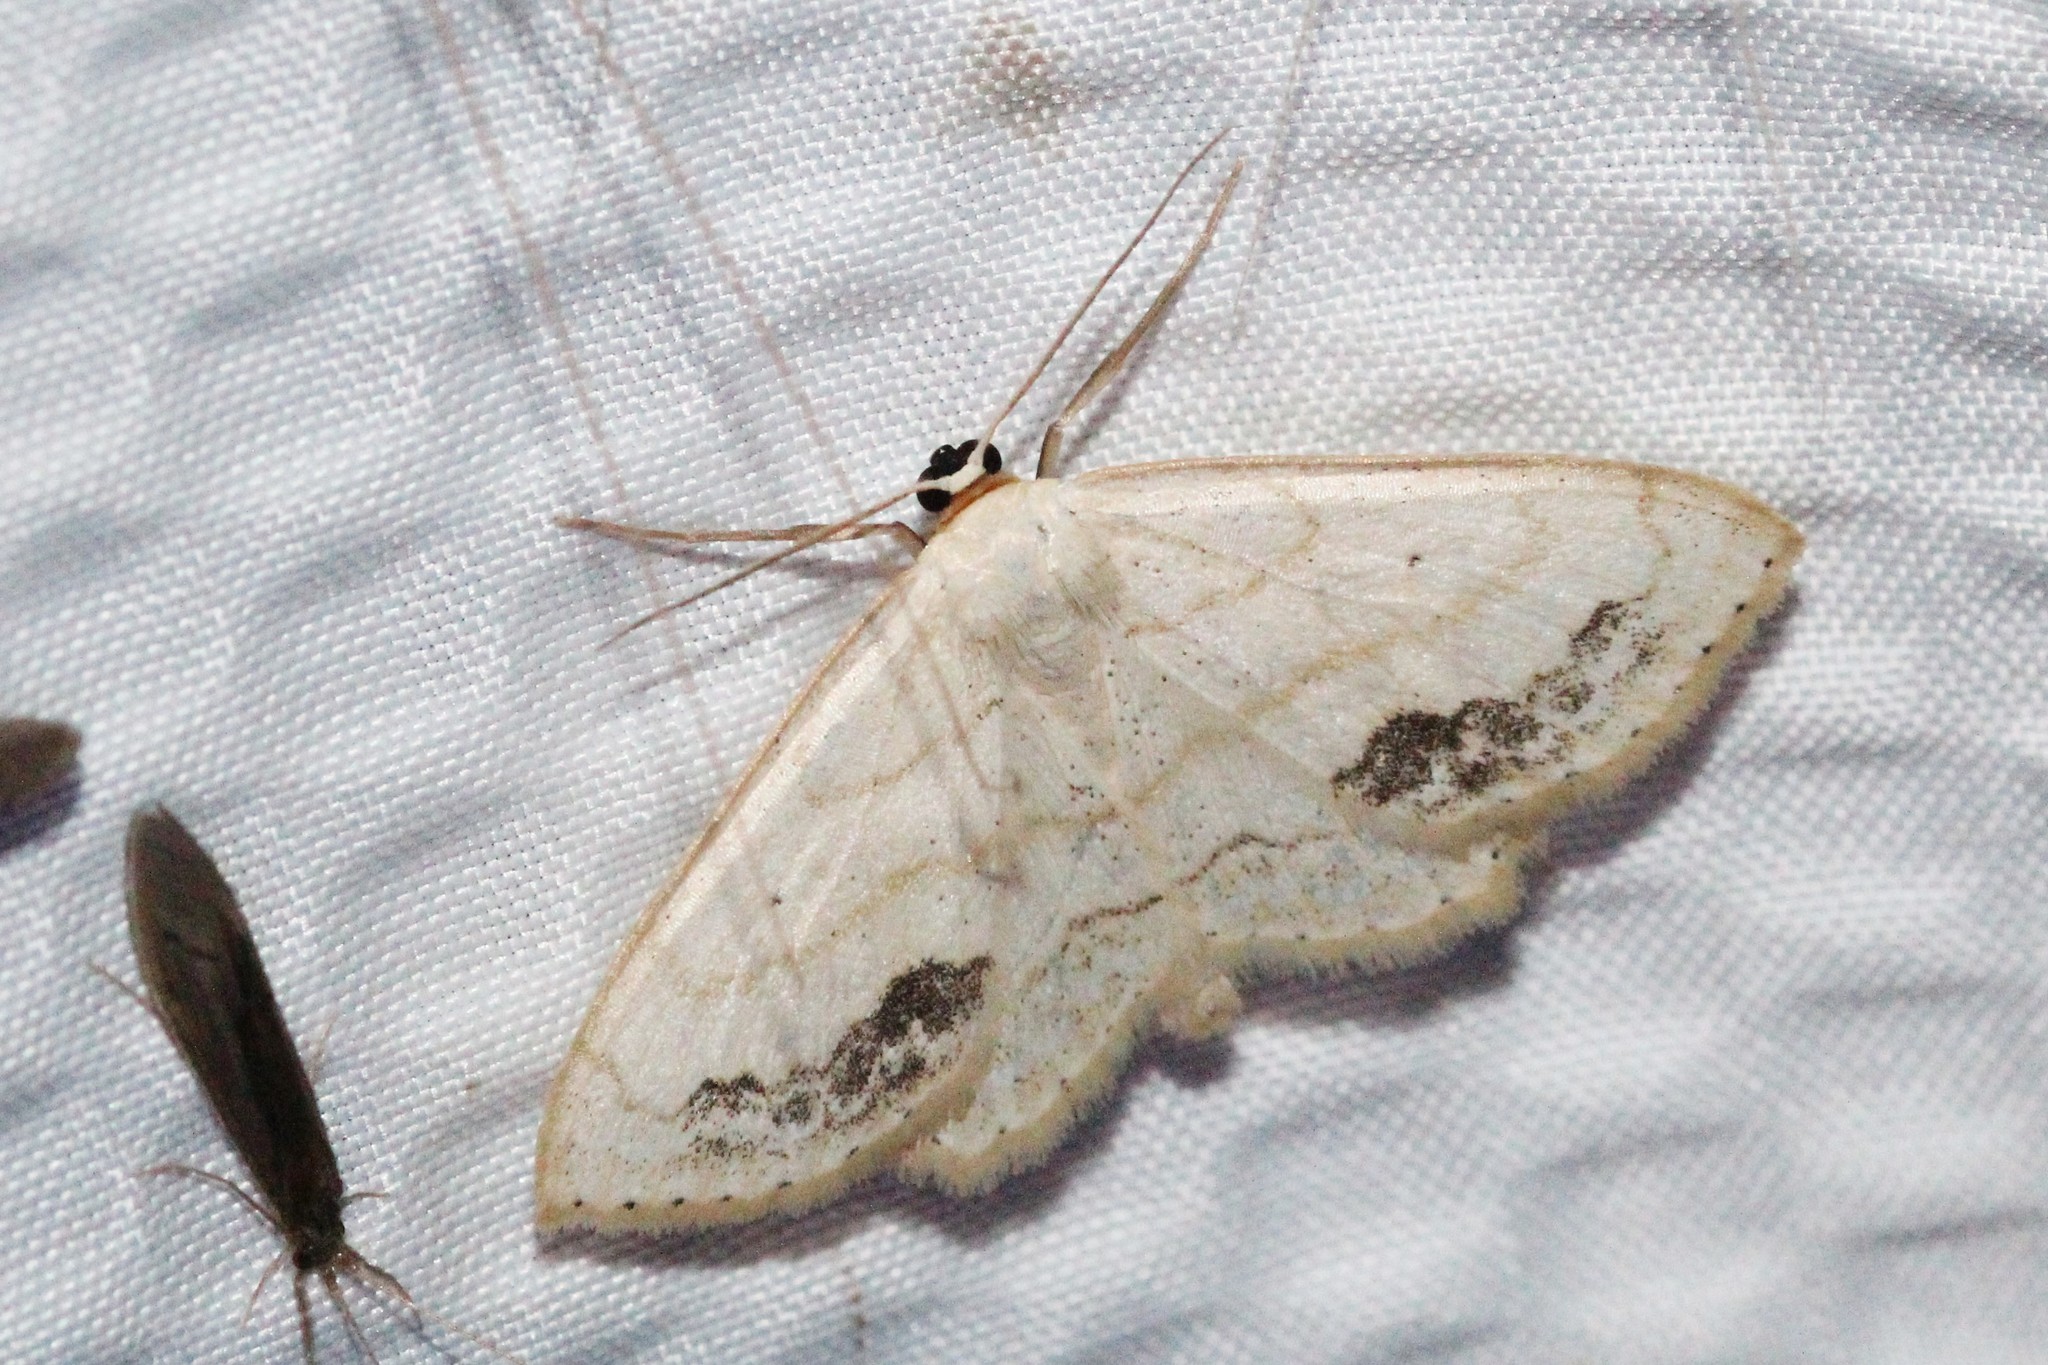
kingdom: Animalia
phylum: Arthropoda
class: Insecta
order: Lepidoptera
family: Geometridae
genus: Scopula
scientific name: Scopula limboundata
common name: Large lace border
